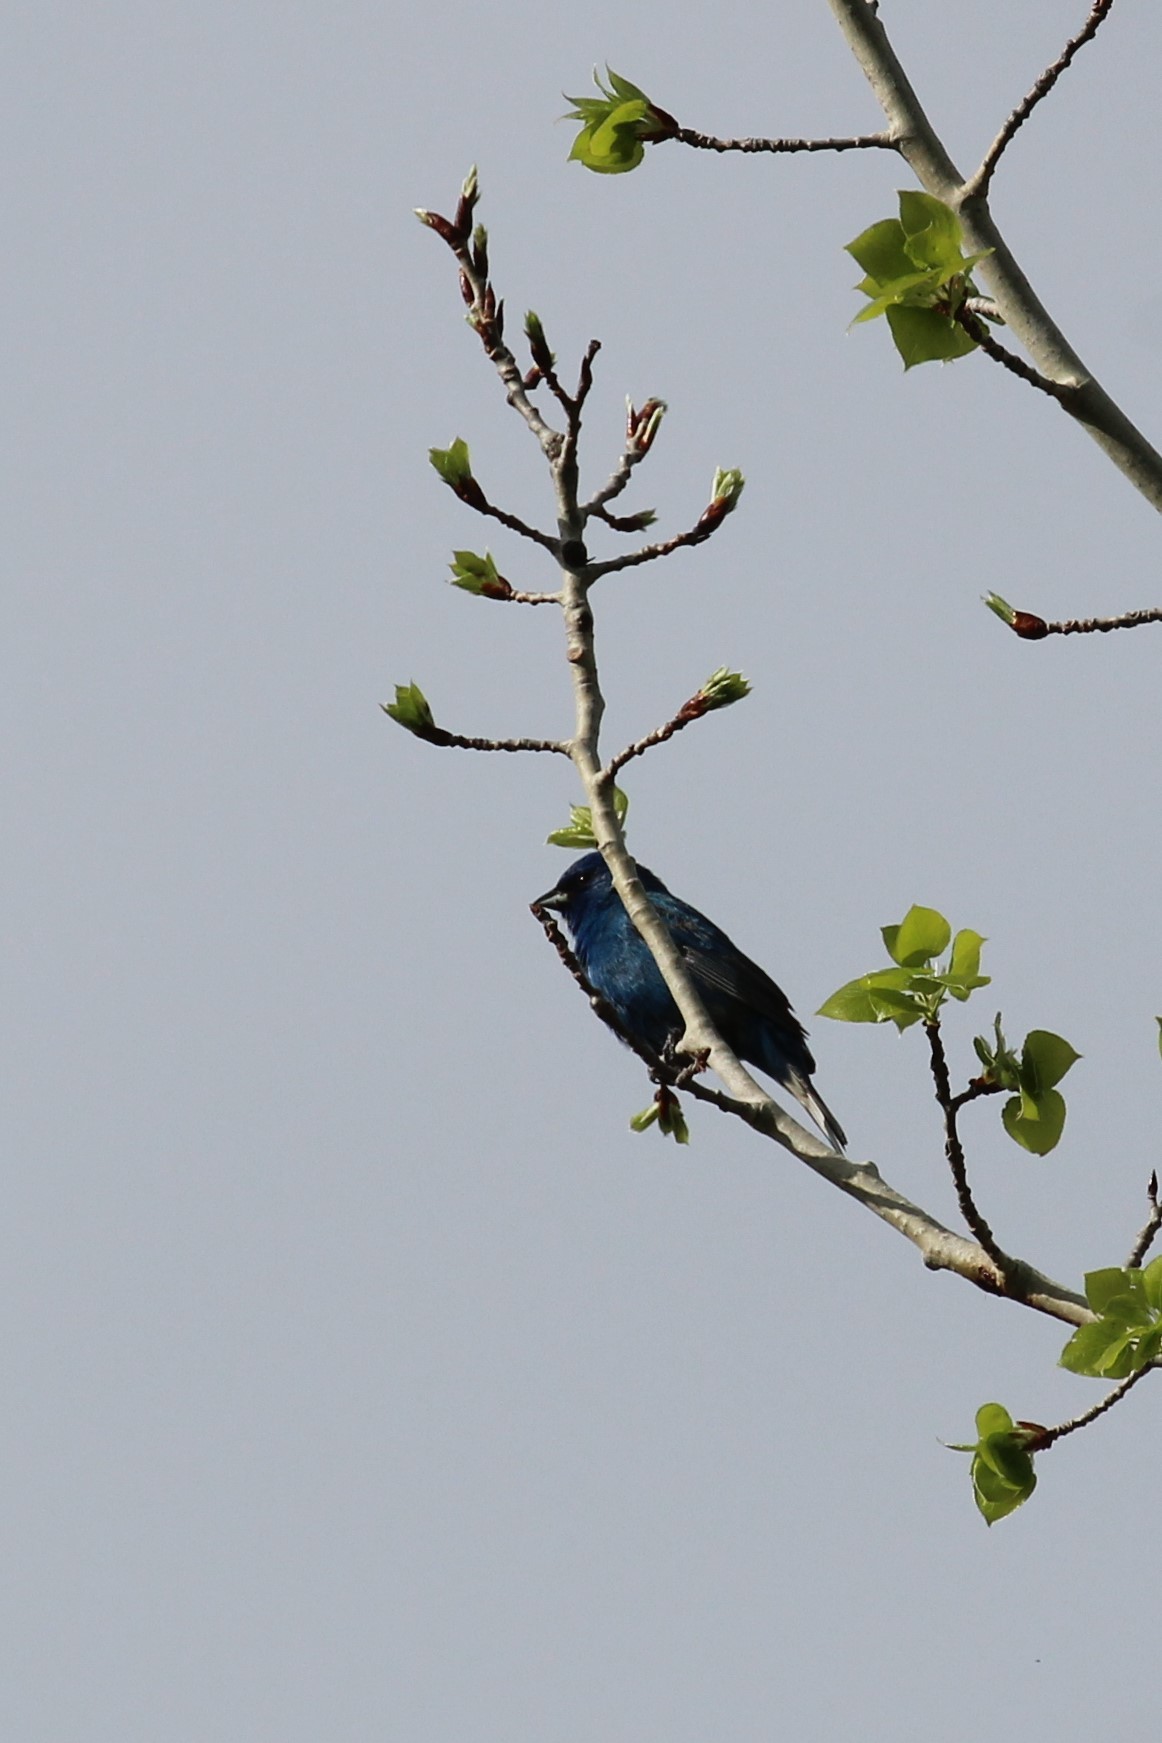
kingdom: Animalia
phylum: Chordata
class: Aves
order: Passeriformes
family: Cardinalidae
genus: Passerina
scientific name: Passerina cyanea
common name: Indigo bunting
